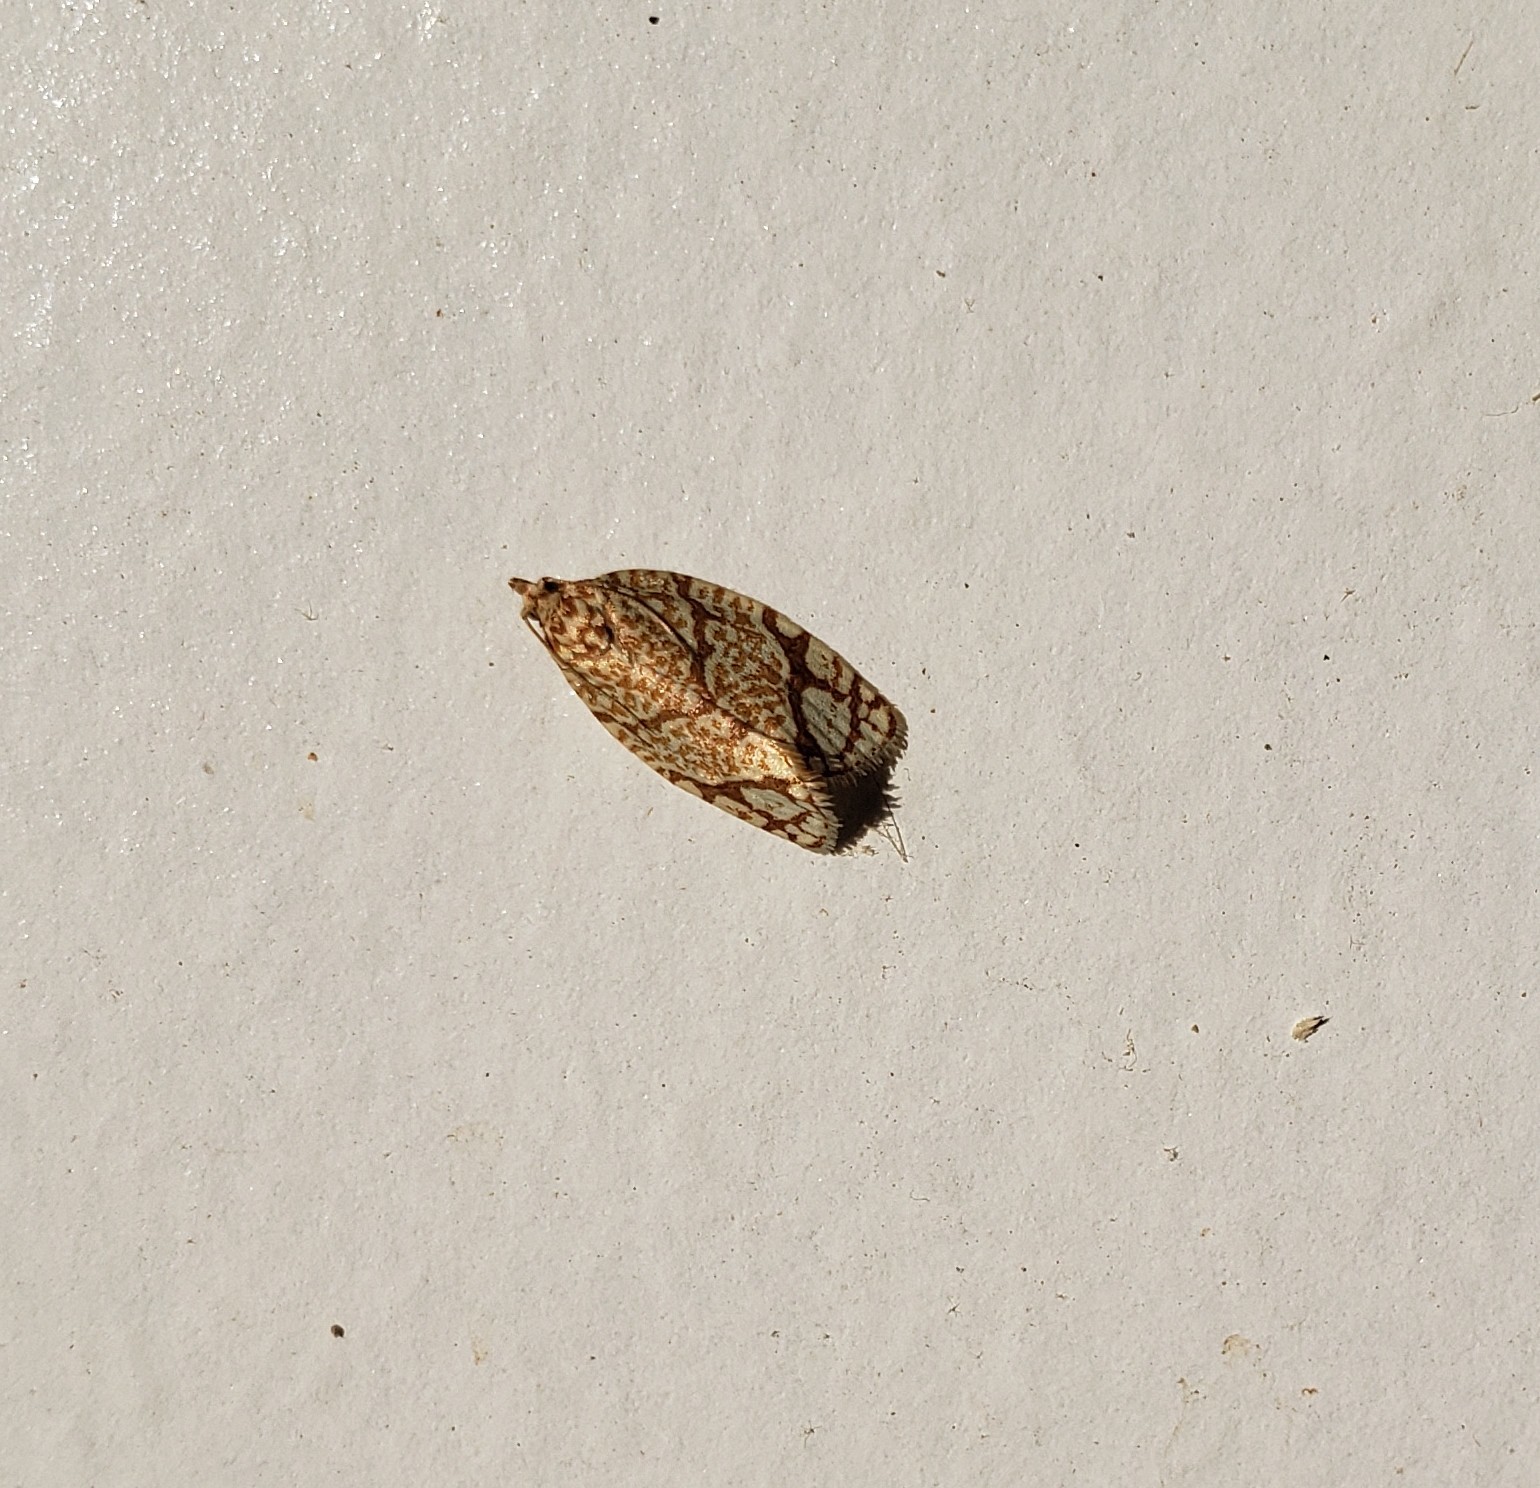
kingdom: Animalia
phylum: Arthropoda
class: Insecta
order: Lepidoptera
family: Tortricidae
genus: Argyrotaenia
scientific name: Argyrotaenia quercifoliana
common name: Yellow-winged oak leafroller moth
